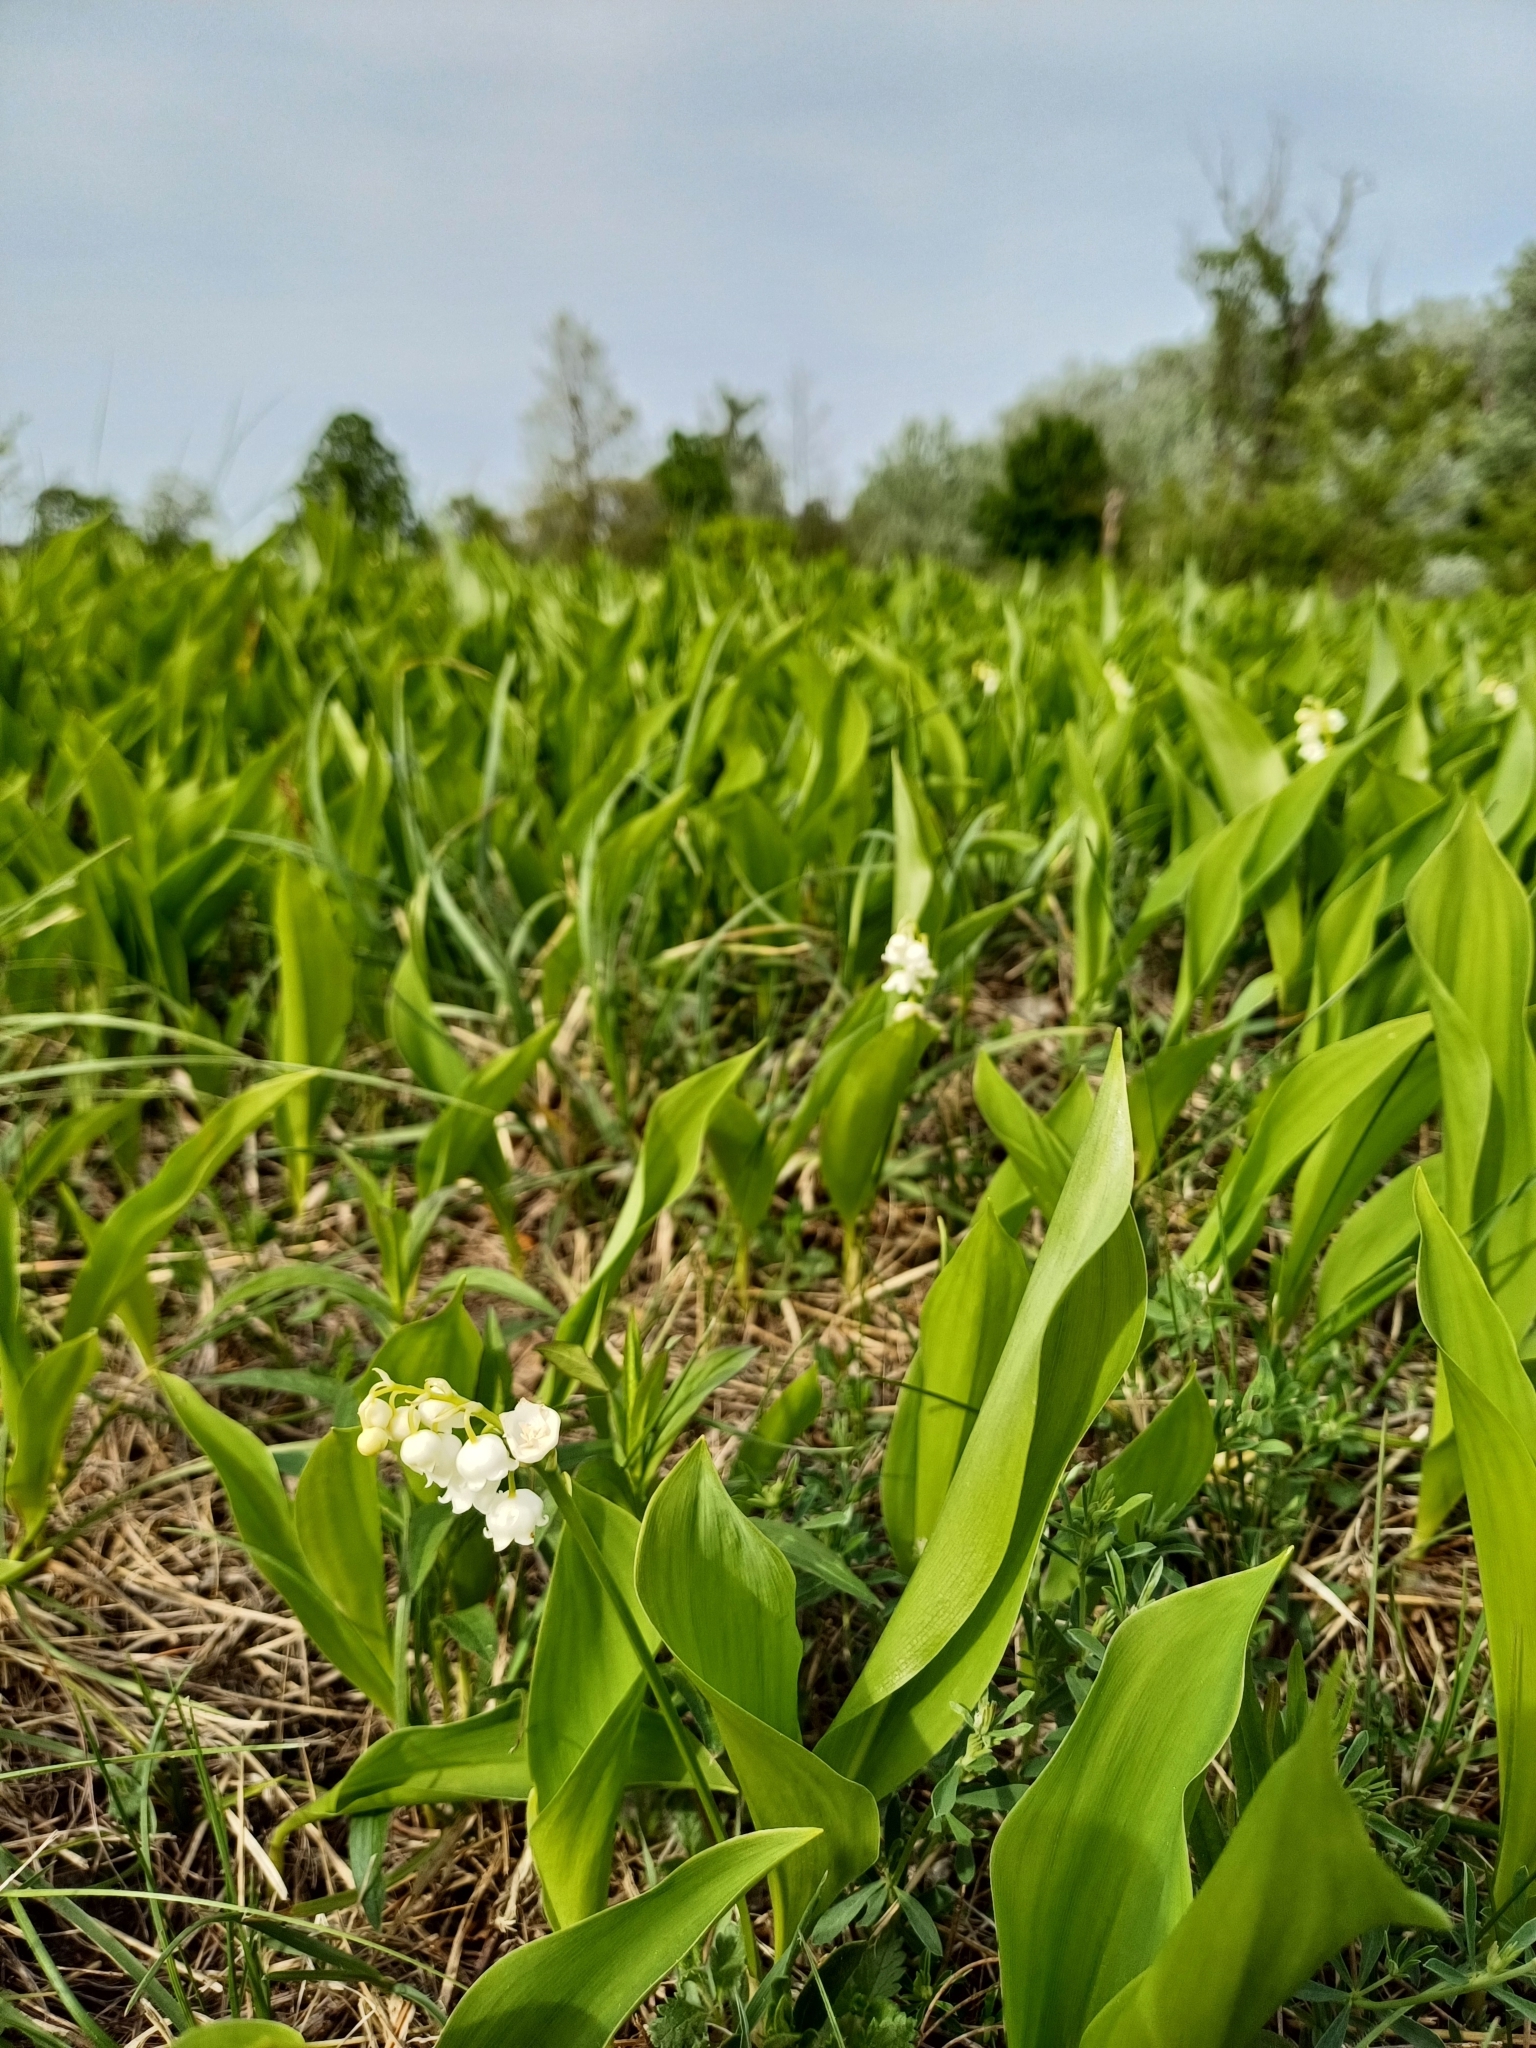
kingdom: Plantae
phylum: Tracheophyta
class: Liliopsida
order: Asparagales
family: Asparagaceae
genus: Convallaria
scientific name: Convallaria majalis
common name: Lily-of-the-valley
